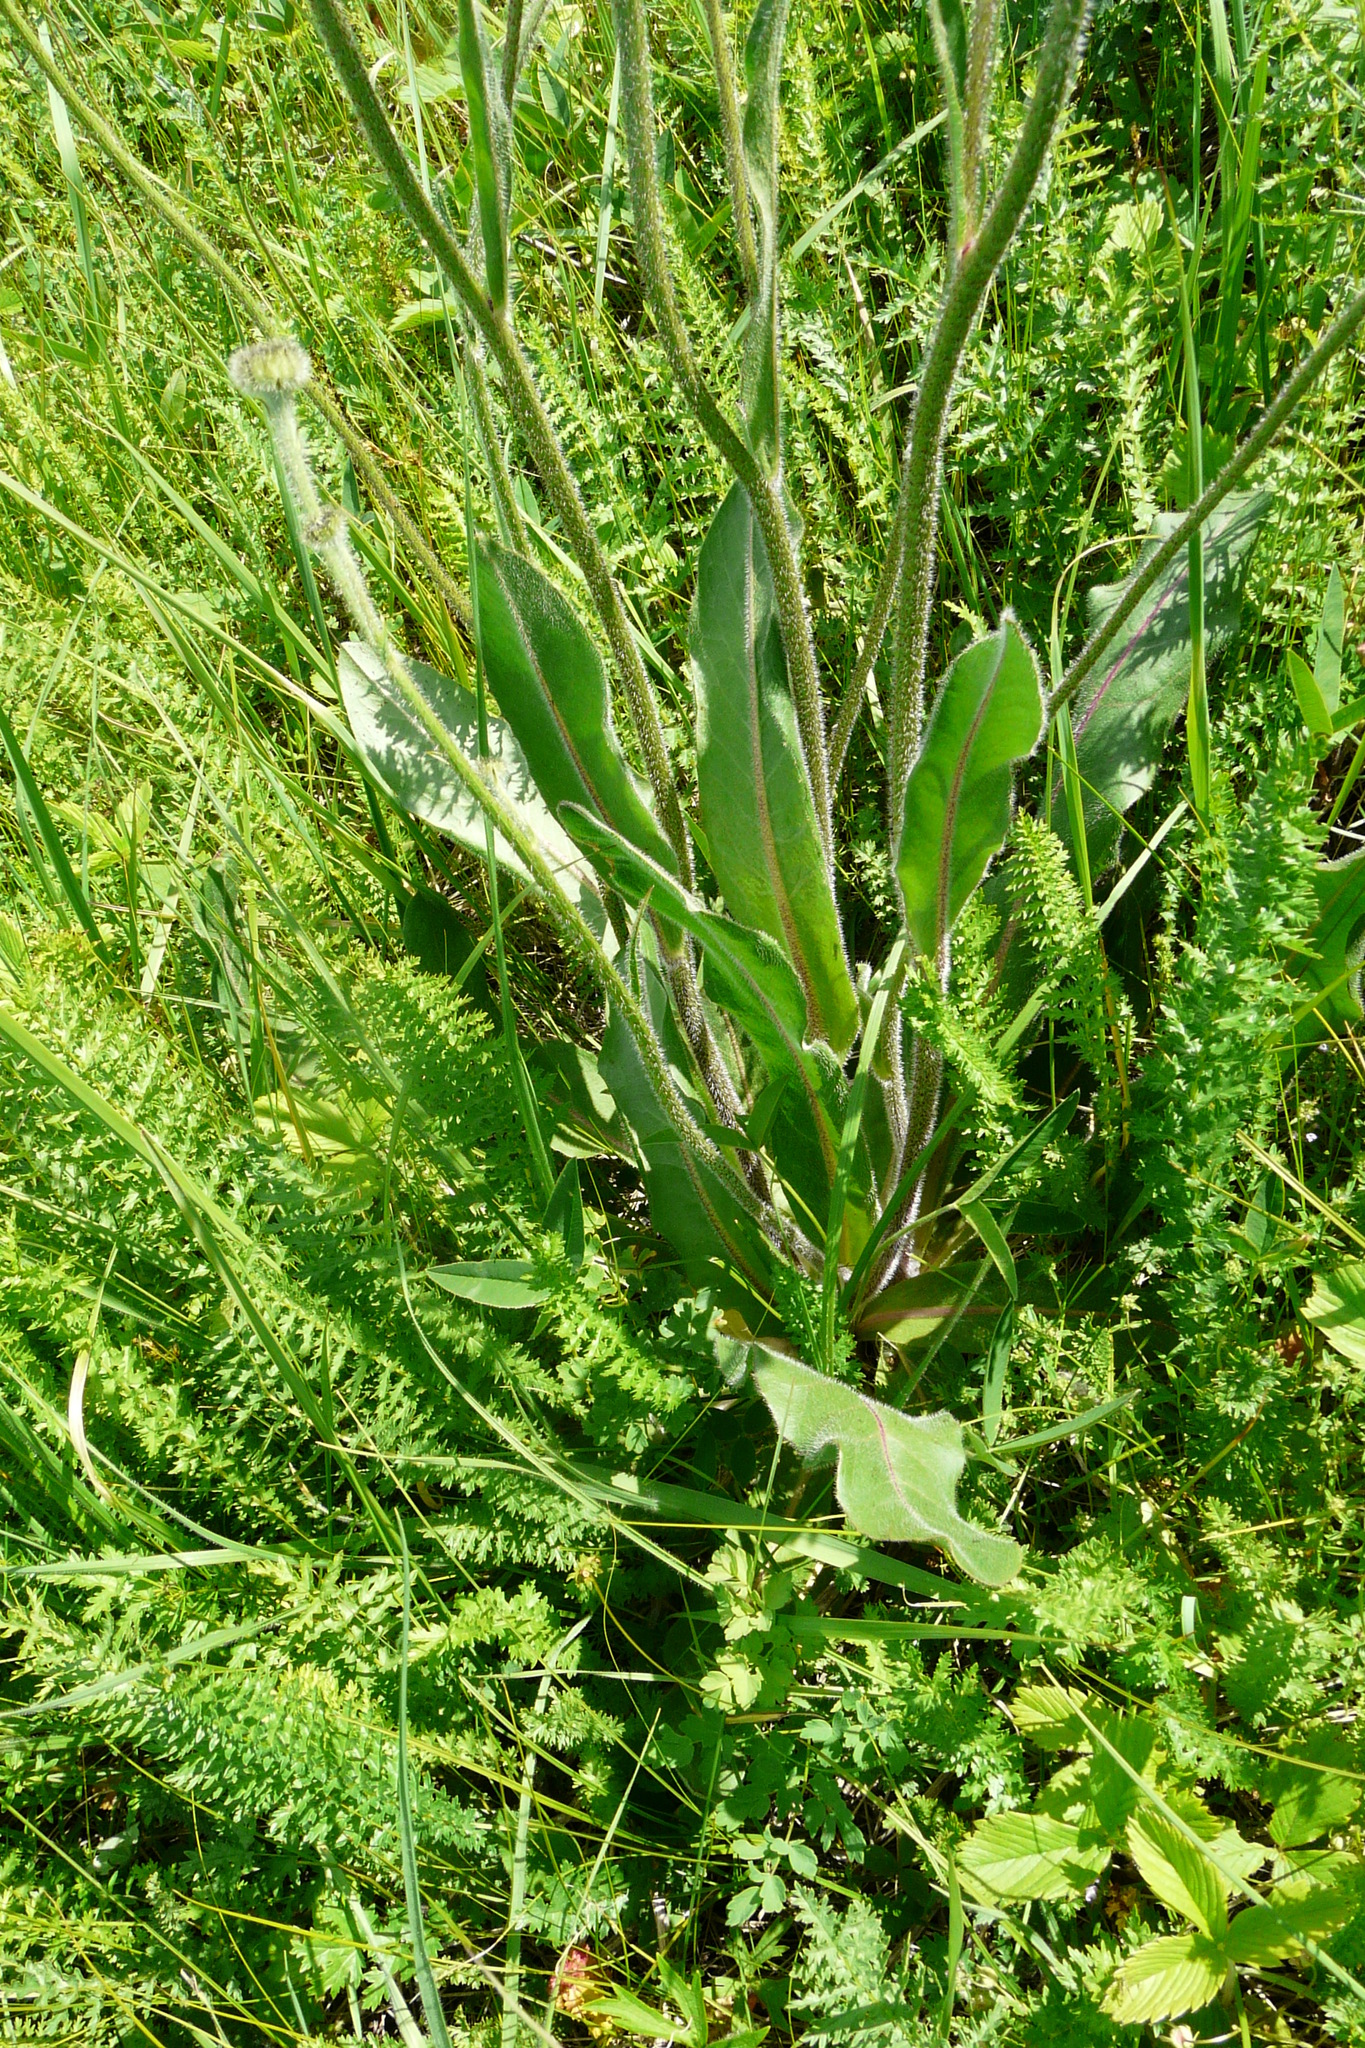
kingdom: Plantae
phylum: Tracheophyta
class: Magnoliopsida
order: Asterales
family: Asteraceae
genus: Trommsdorffia
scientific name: Trommsdorffia maculata
